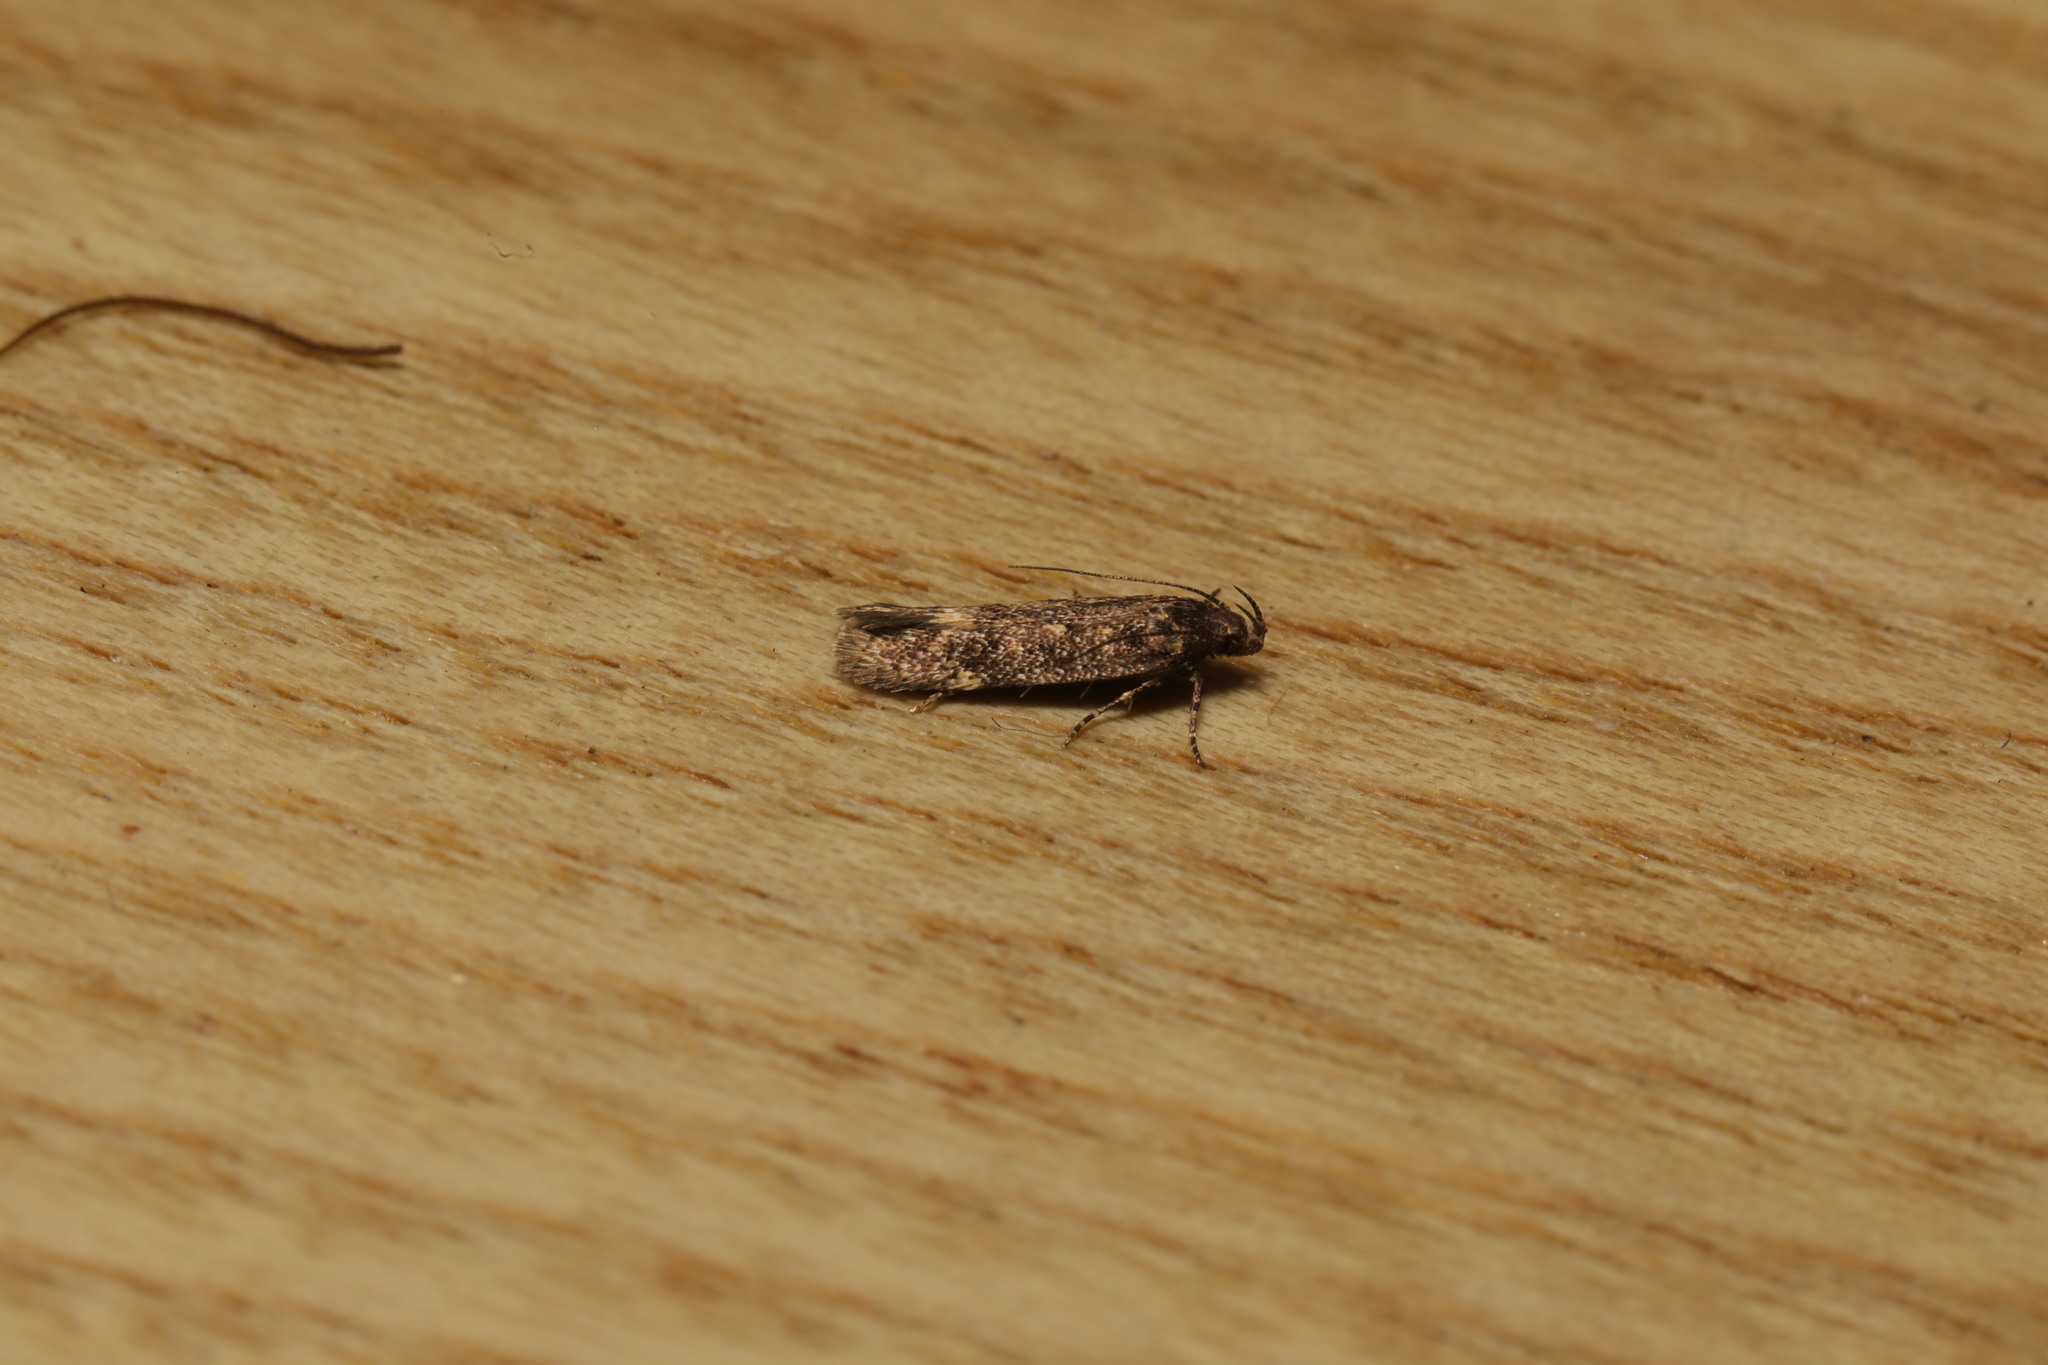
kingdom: Animalia
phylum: Arthropoda
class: Insecta
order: Lepidoptera
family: Gelechiidae
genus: Bryotropha
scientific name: Bryotropha affinis
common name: Dark groundling
